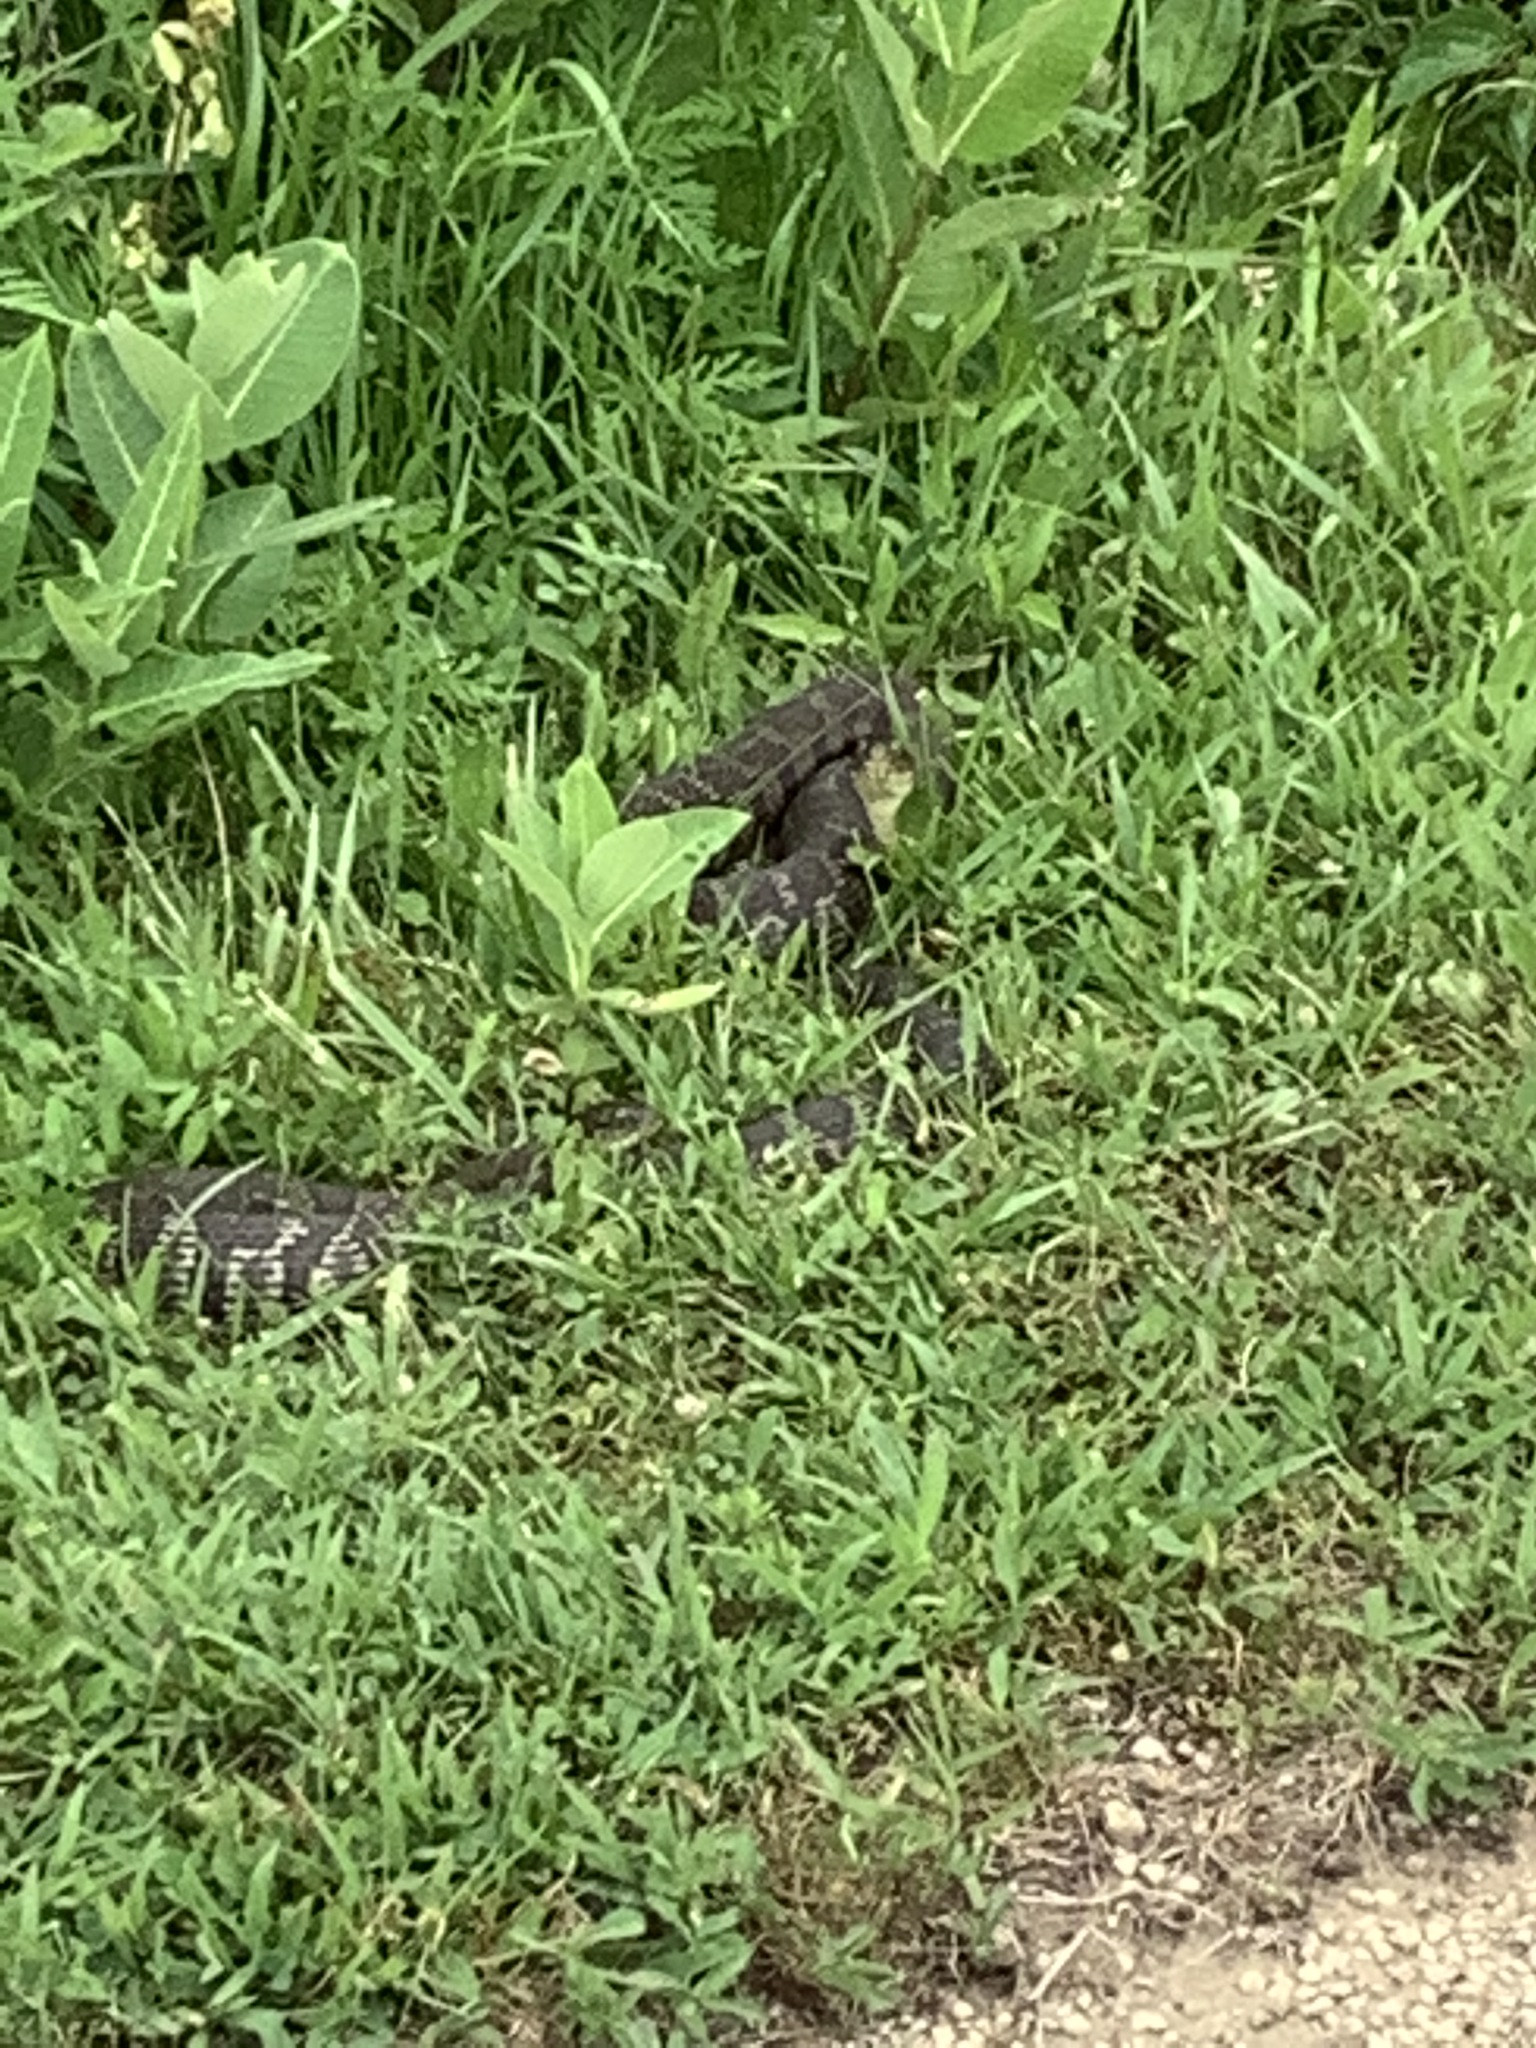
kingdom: Animalia
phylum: Chordata
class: Squamata
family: Colubridae
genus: Nerodia
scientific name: Nerodia sipedon
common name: Northern water snake
